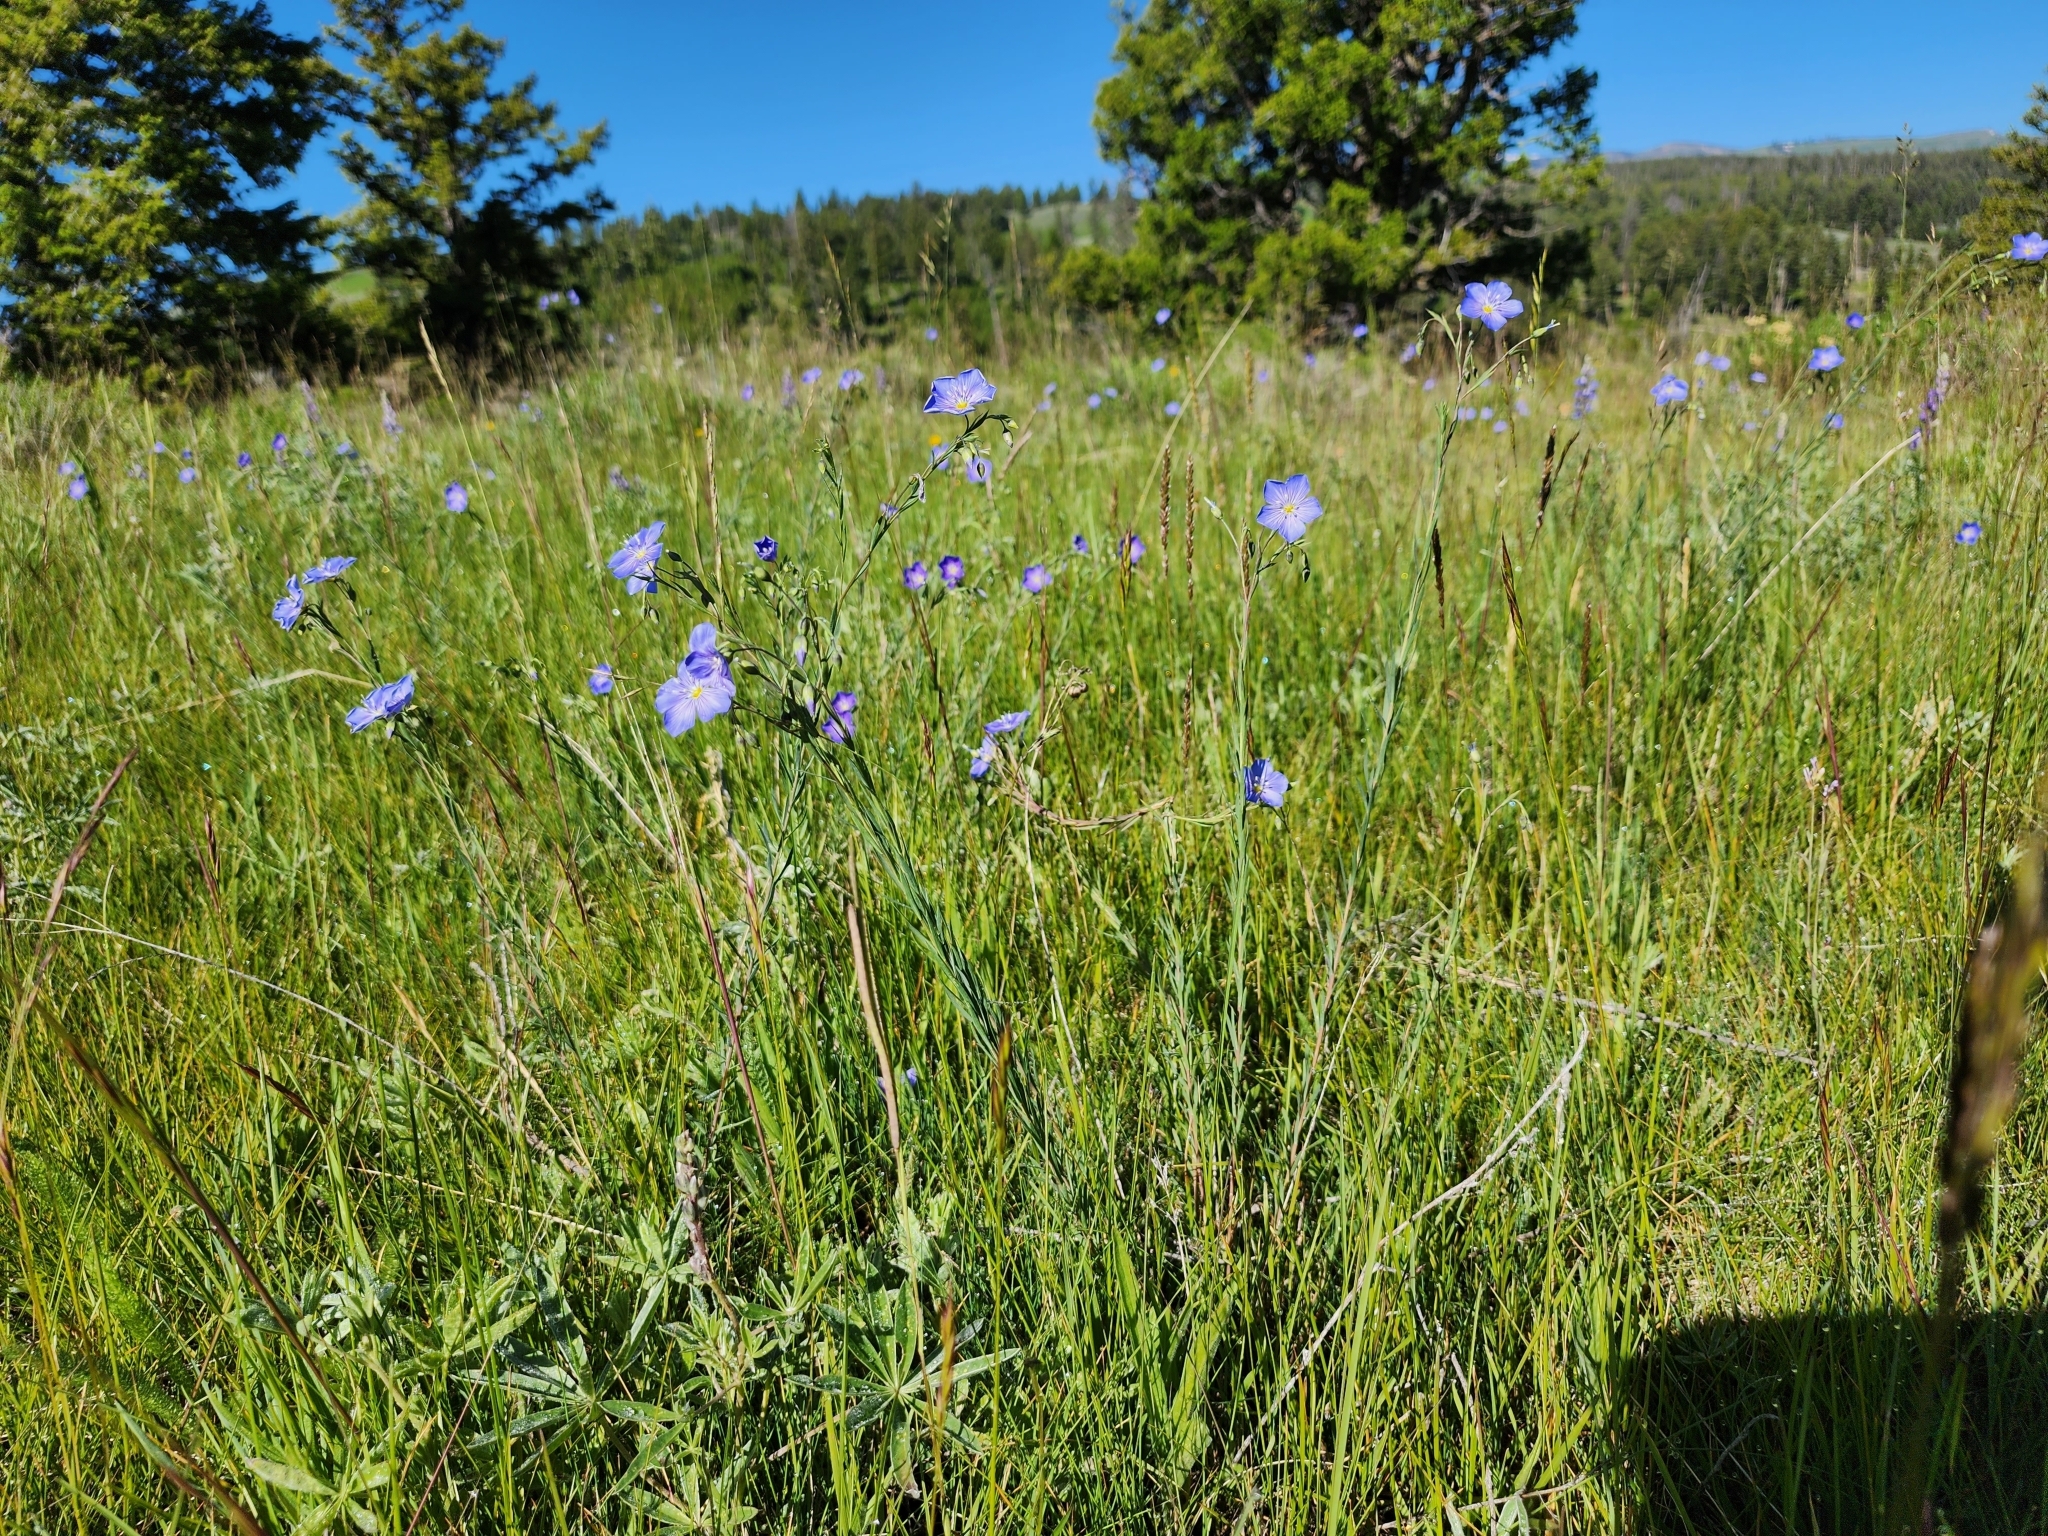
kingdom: Plantae
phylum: Tracheophyta
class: Magnoliopsida
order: Malpighiales
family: Linaceae
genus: Linum
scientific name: Linum lewisii
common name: Prairie flax
